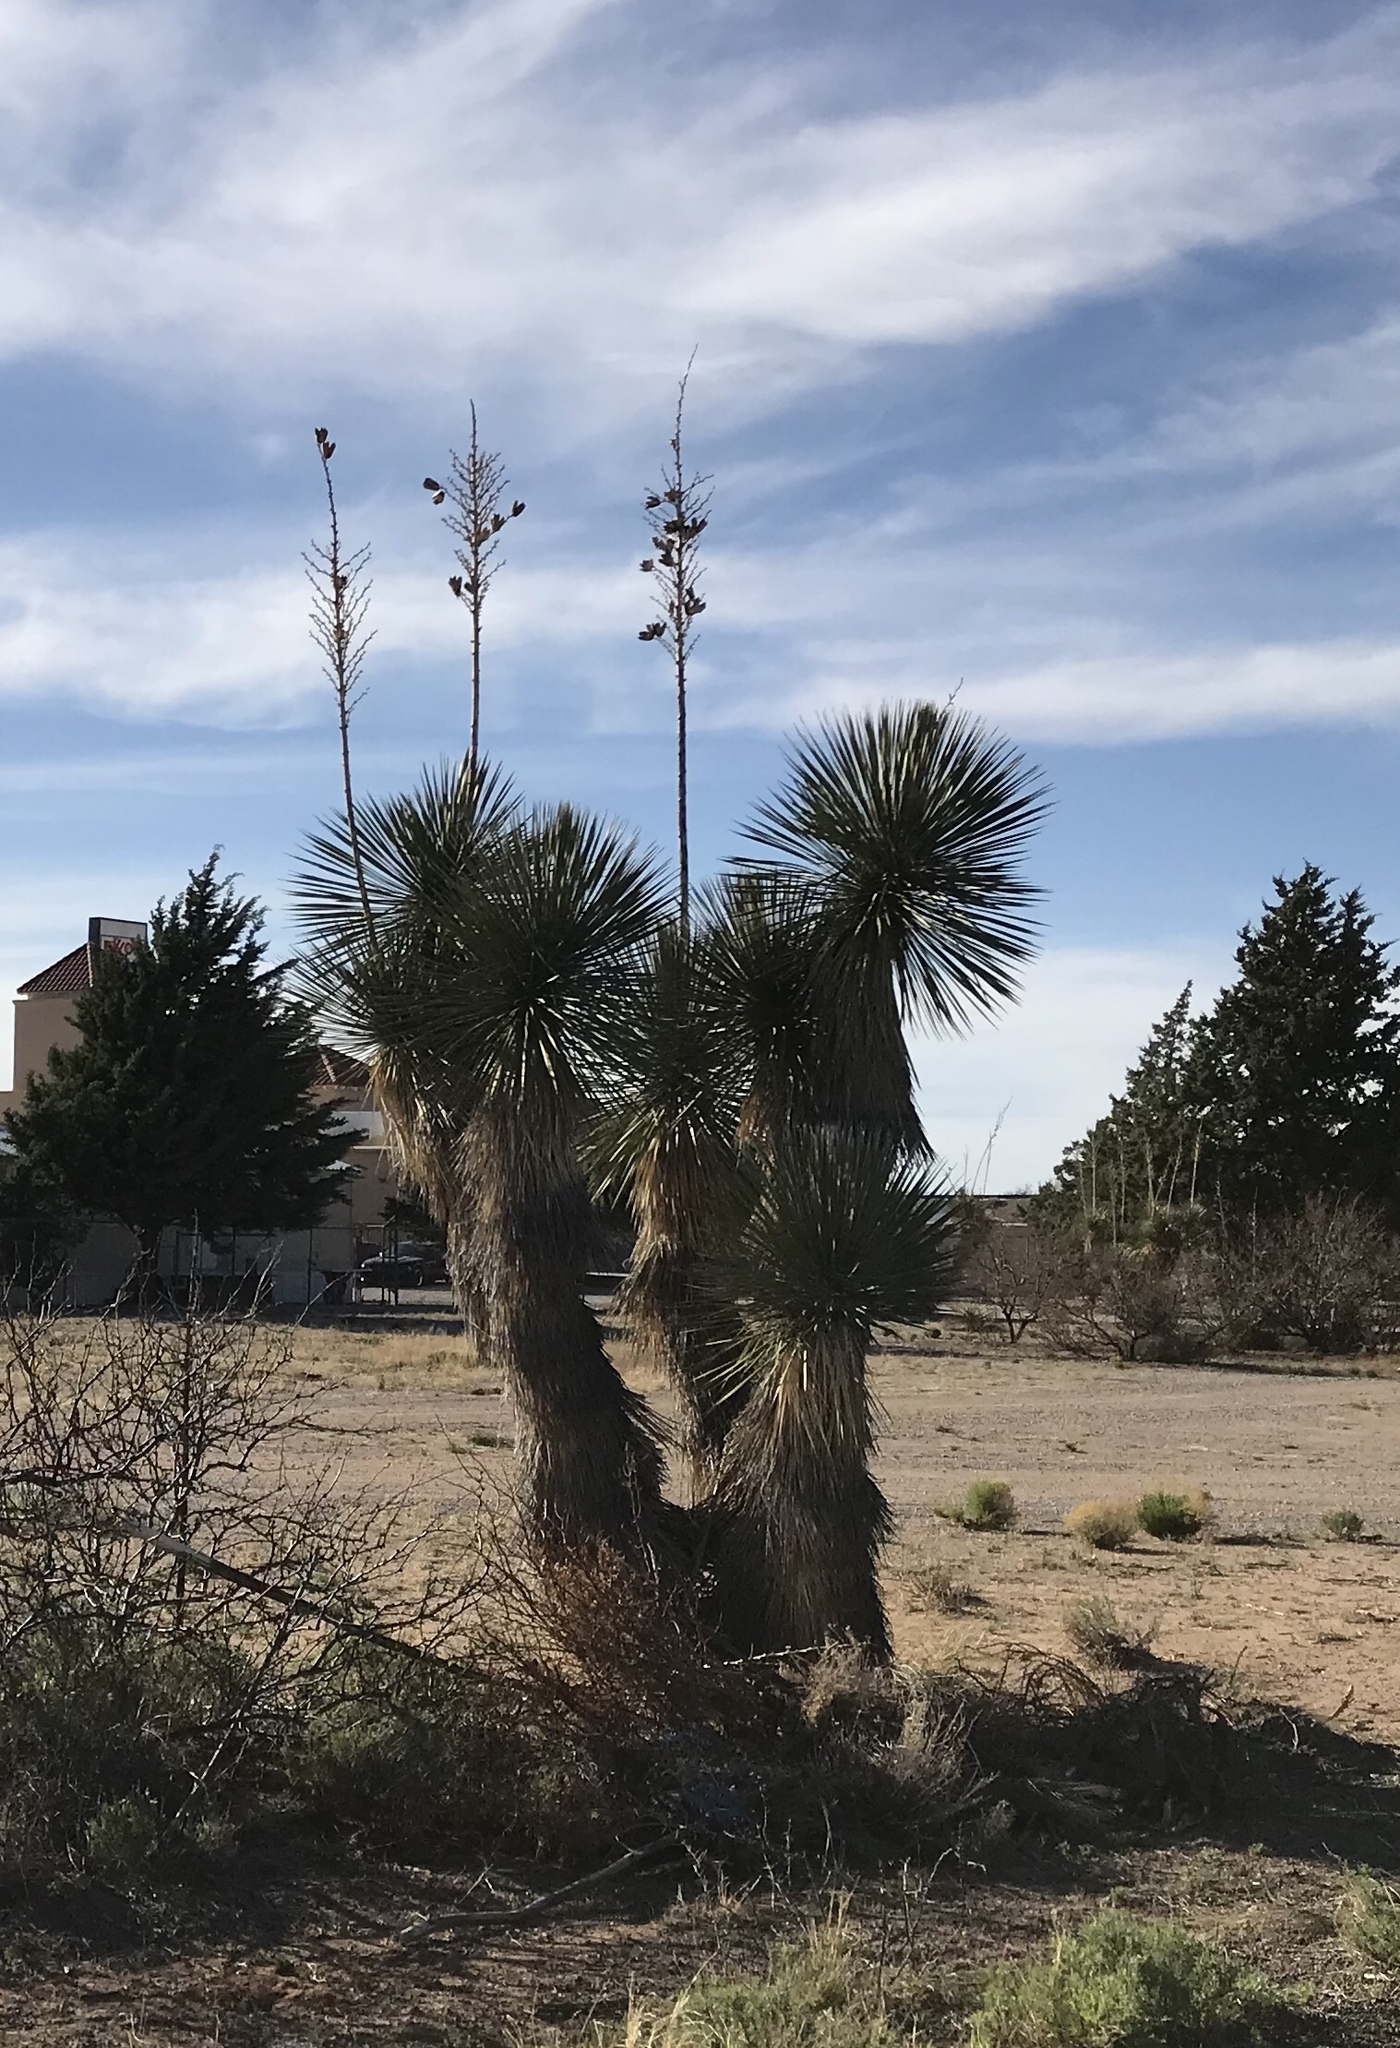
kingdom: Plantae
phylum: Tracheophyta
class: Liliopsida
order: Asparagales
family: Asparagaceae
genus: Yucca
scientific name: Yucca elata
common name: Palmella
